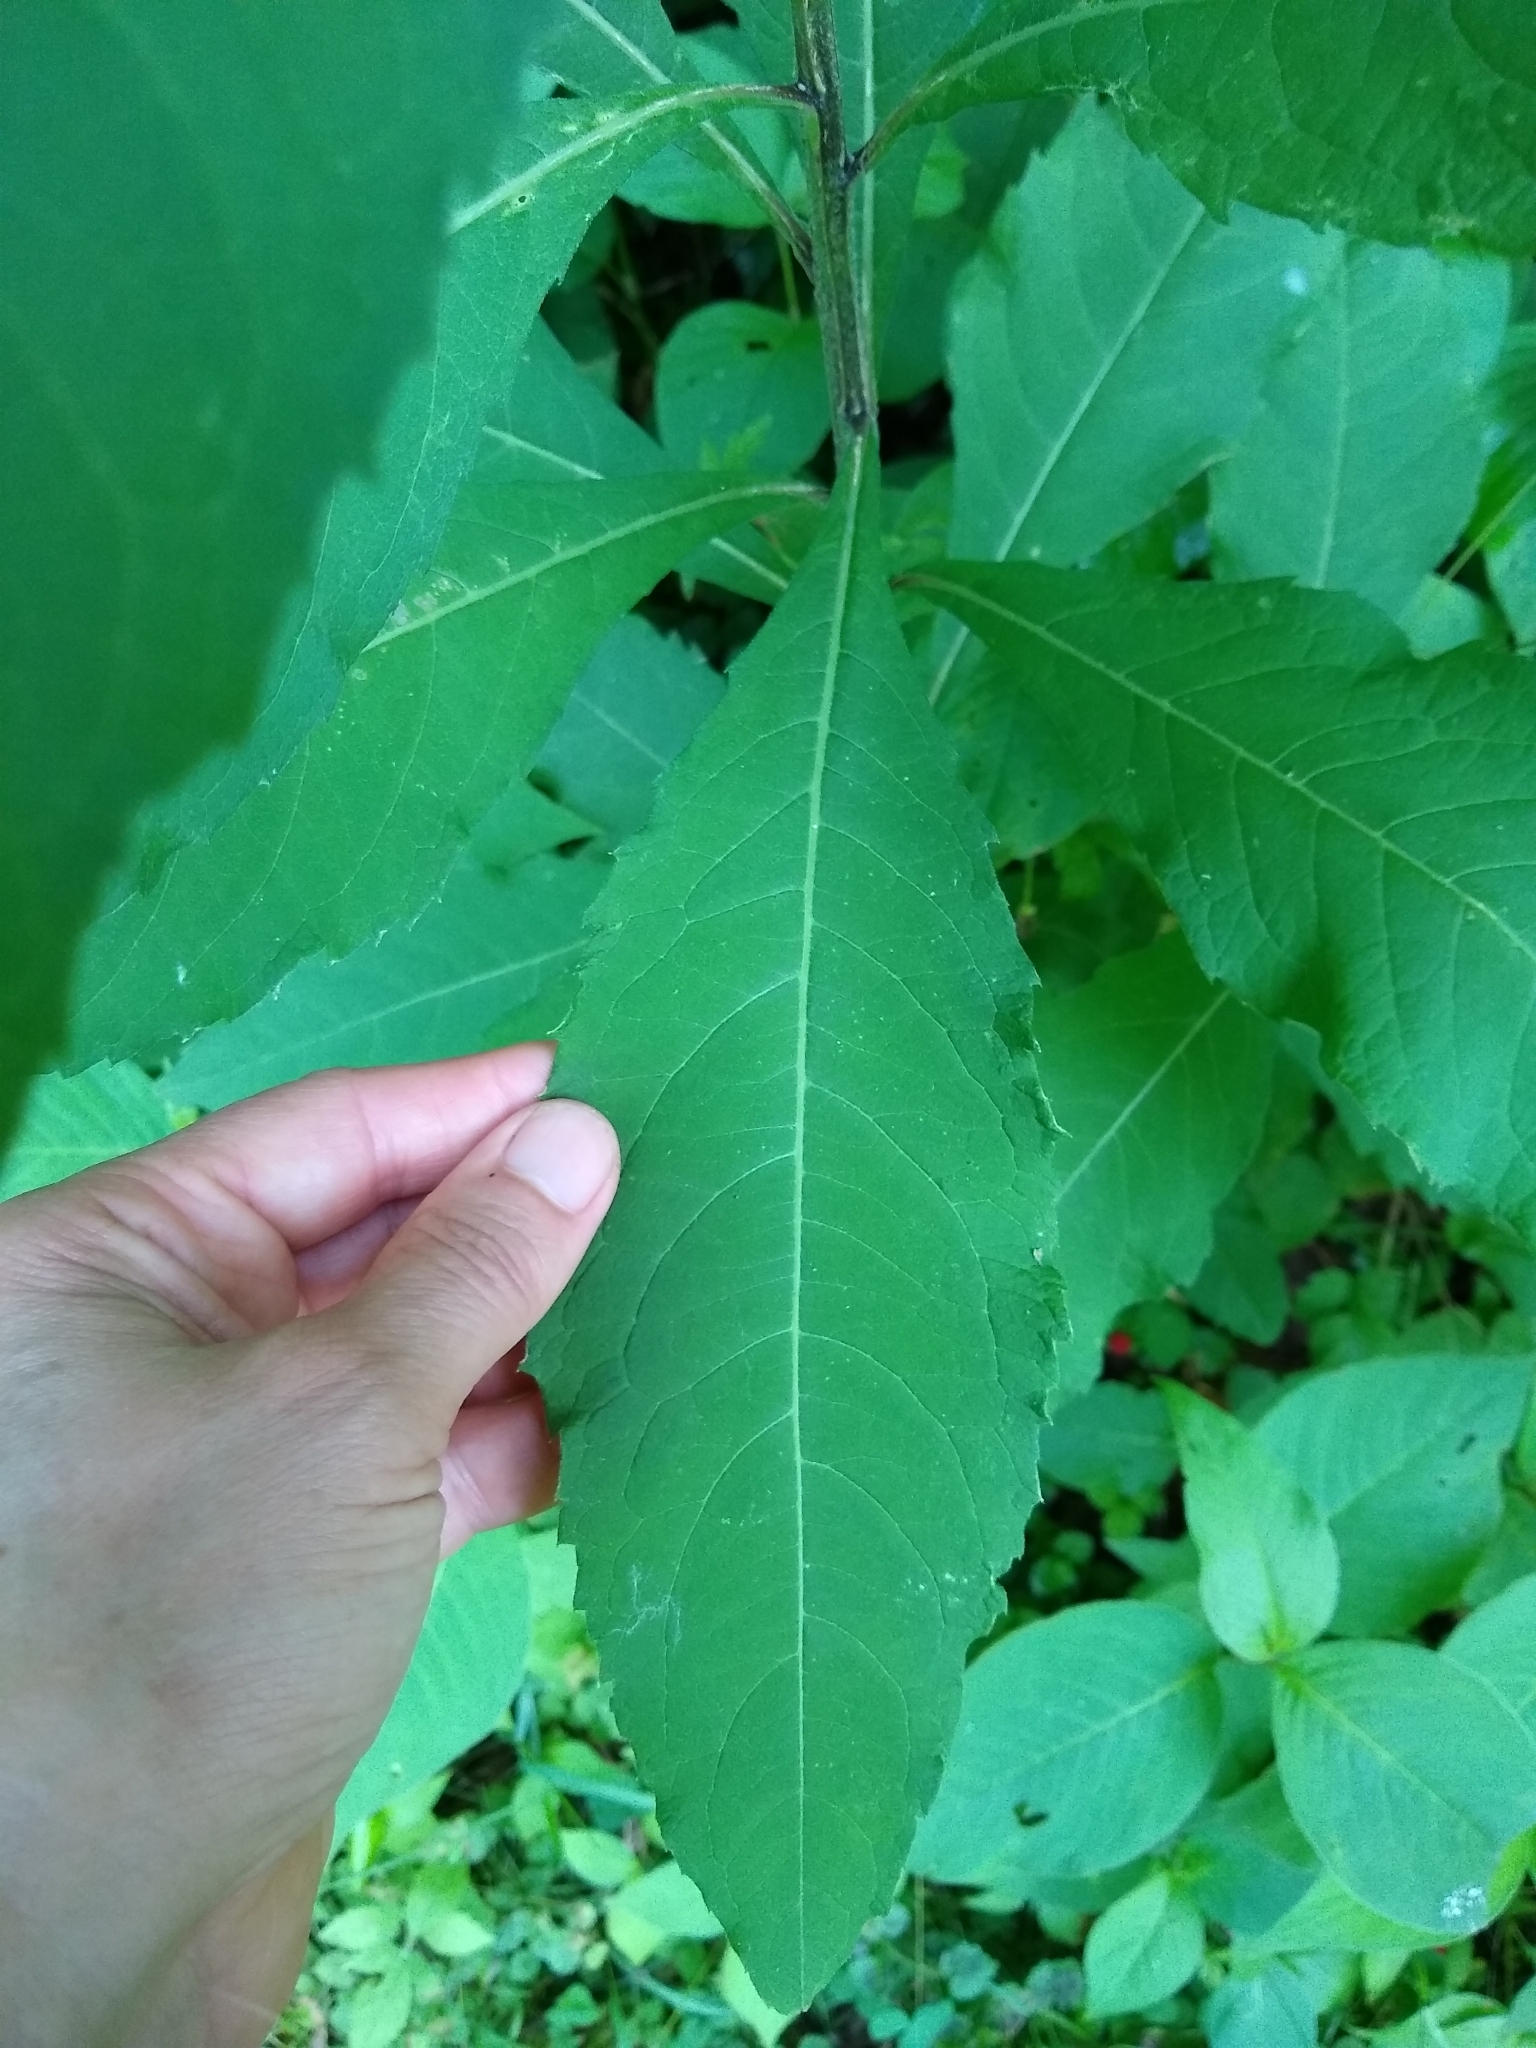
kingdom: Plantae
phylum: Tracheophyta
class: Magnoliopsida
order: Asterales
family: Asteraceae
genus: Verbesina
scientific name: Verbesina alternifolia
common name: Wingstem
